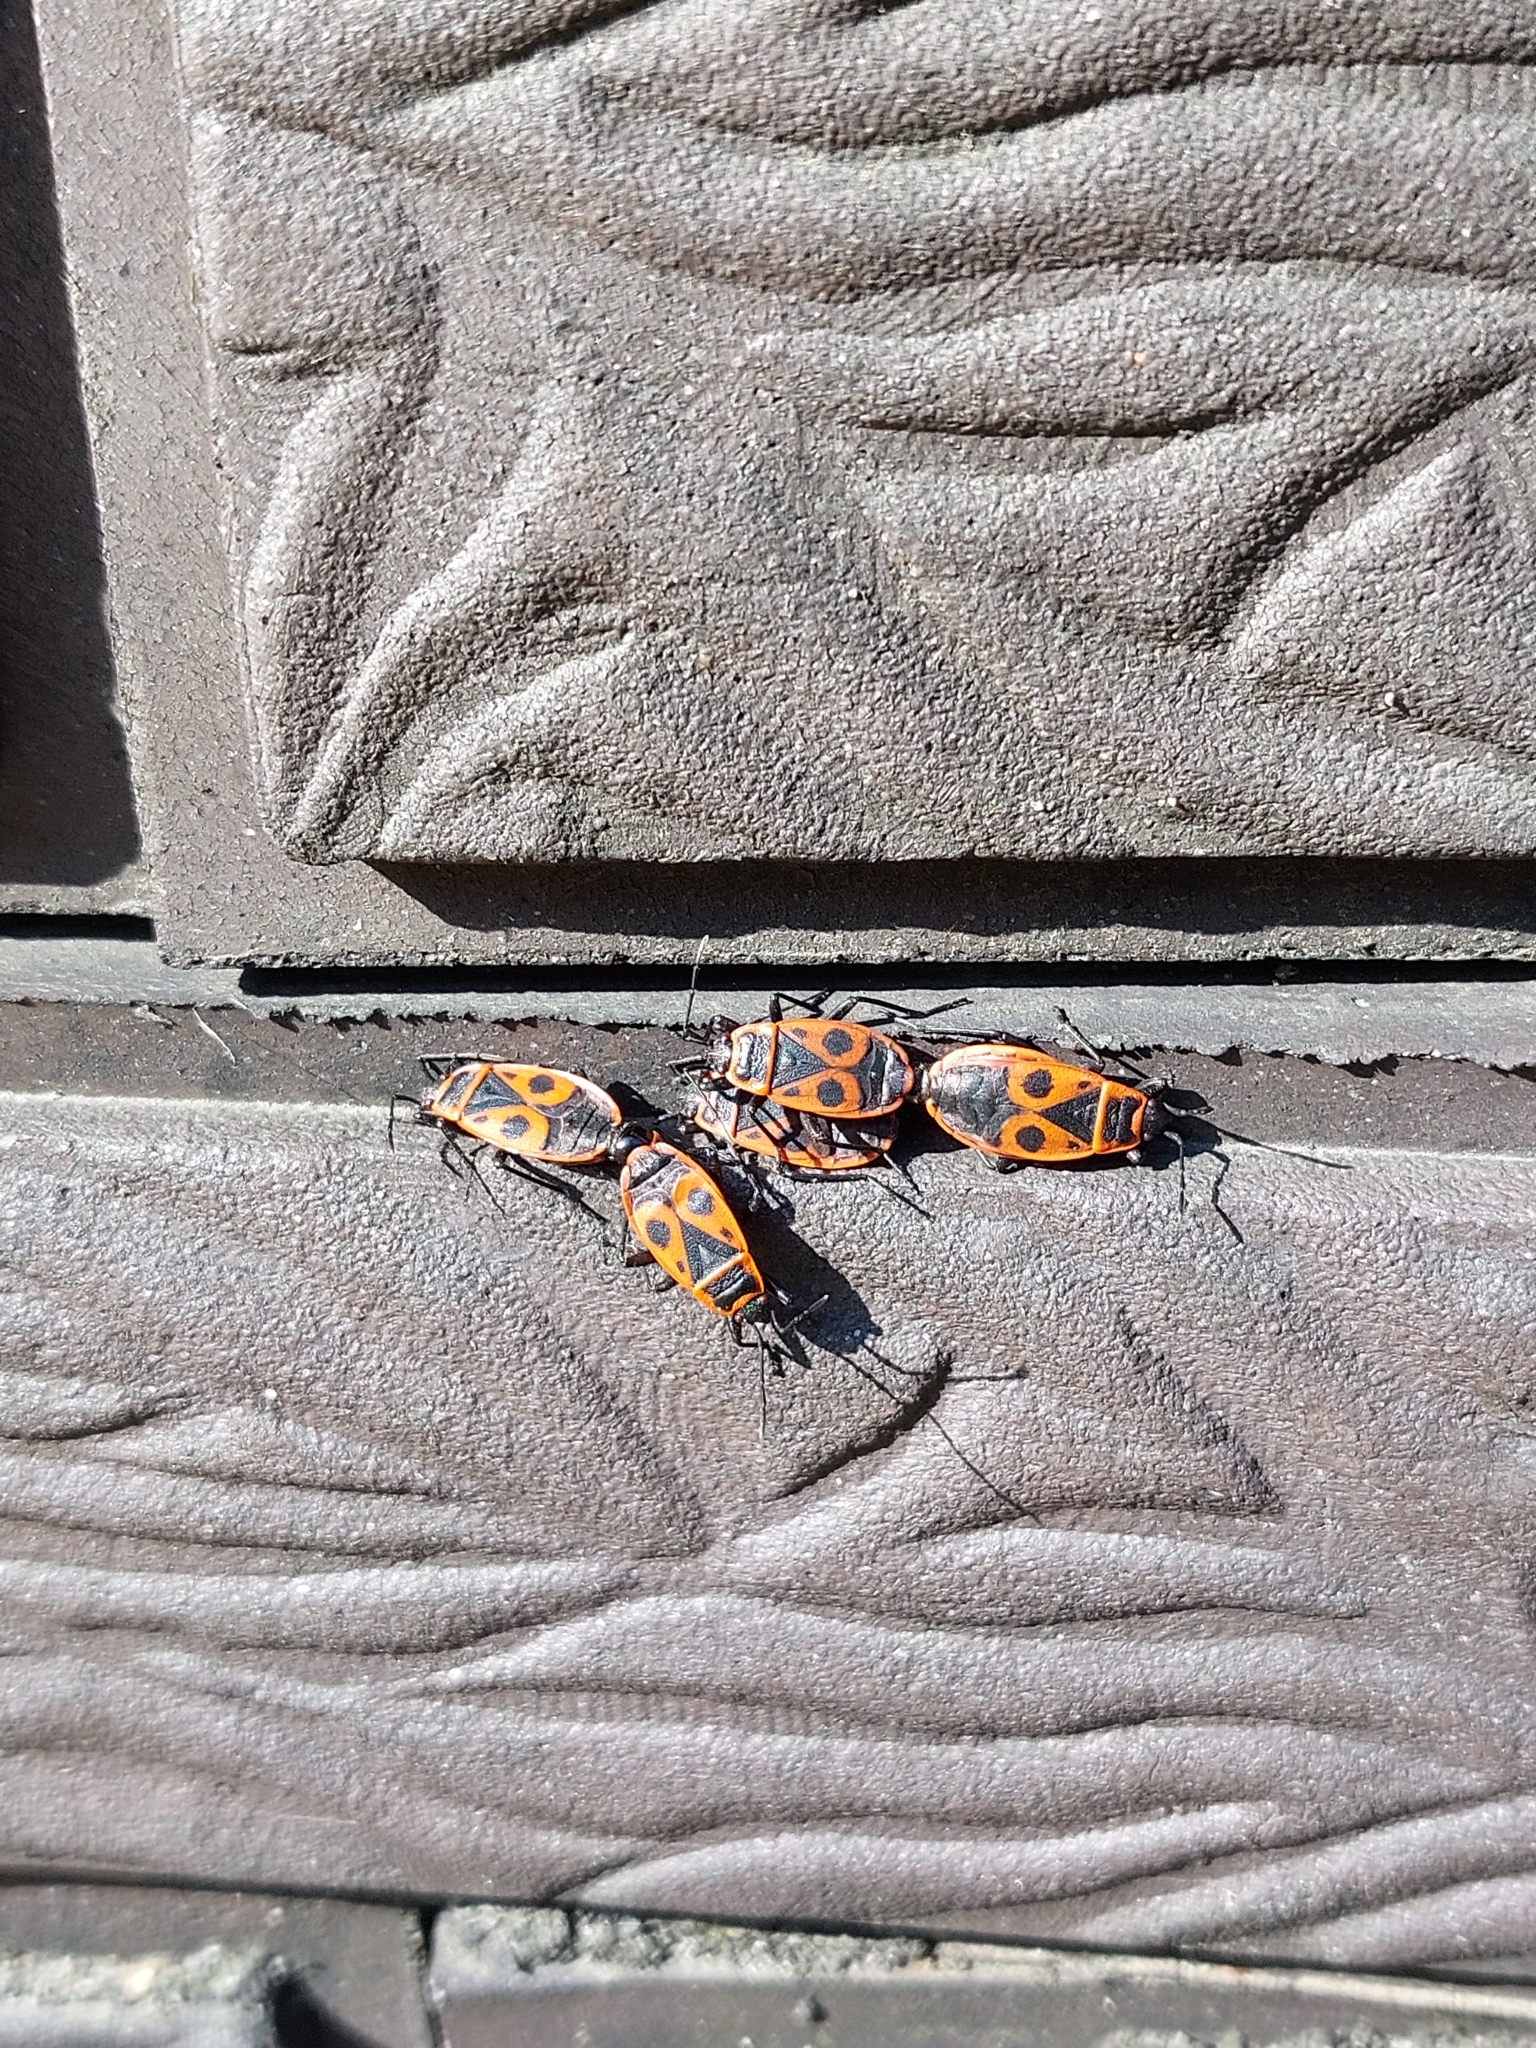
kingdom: Animalia
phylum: Arthropoda
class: Insecta
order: Hemiptera
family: Pyrrhocoridae
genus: Pyrrhocoris
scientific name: Pyrrhocoris apterus
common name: Firebug
